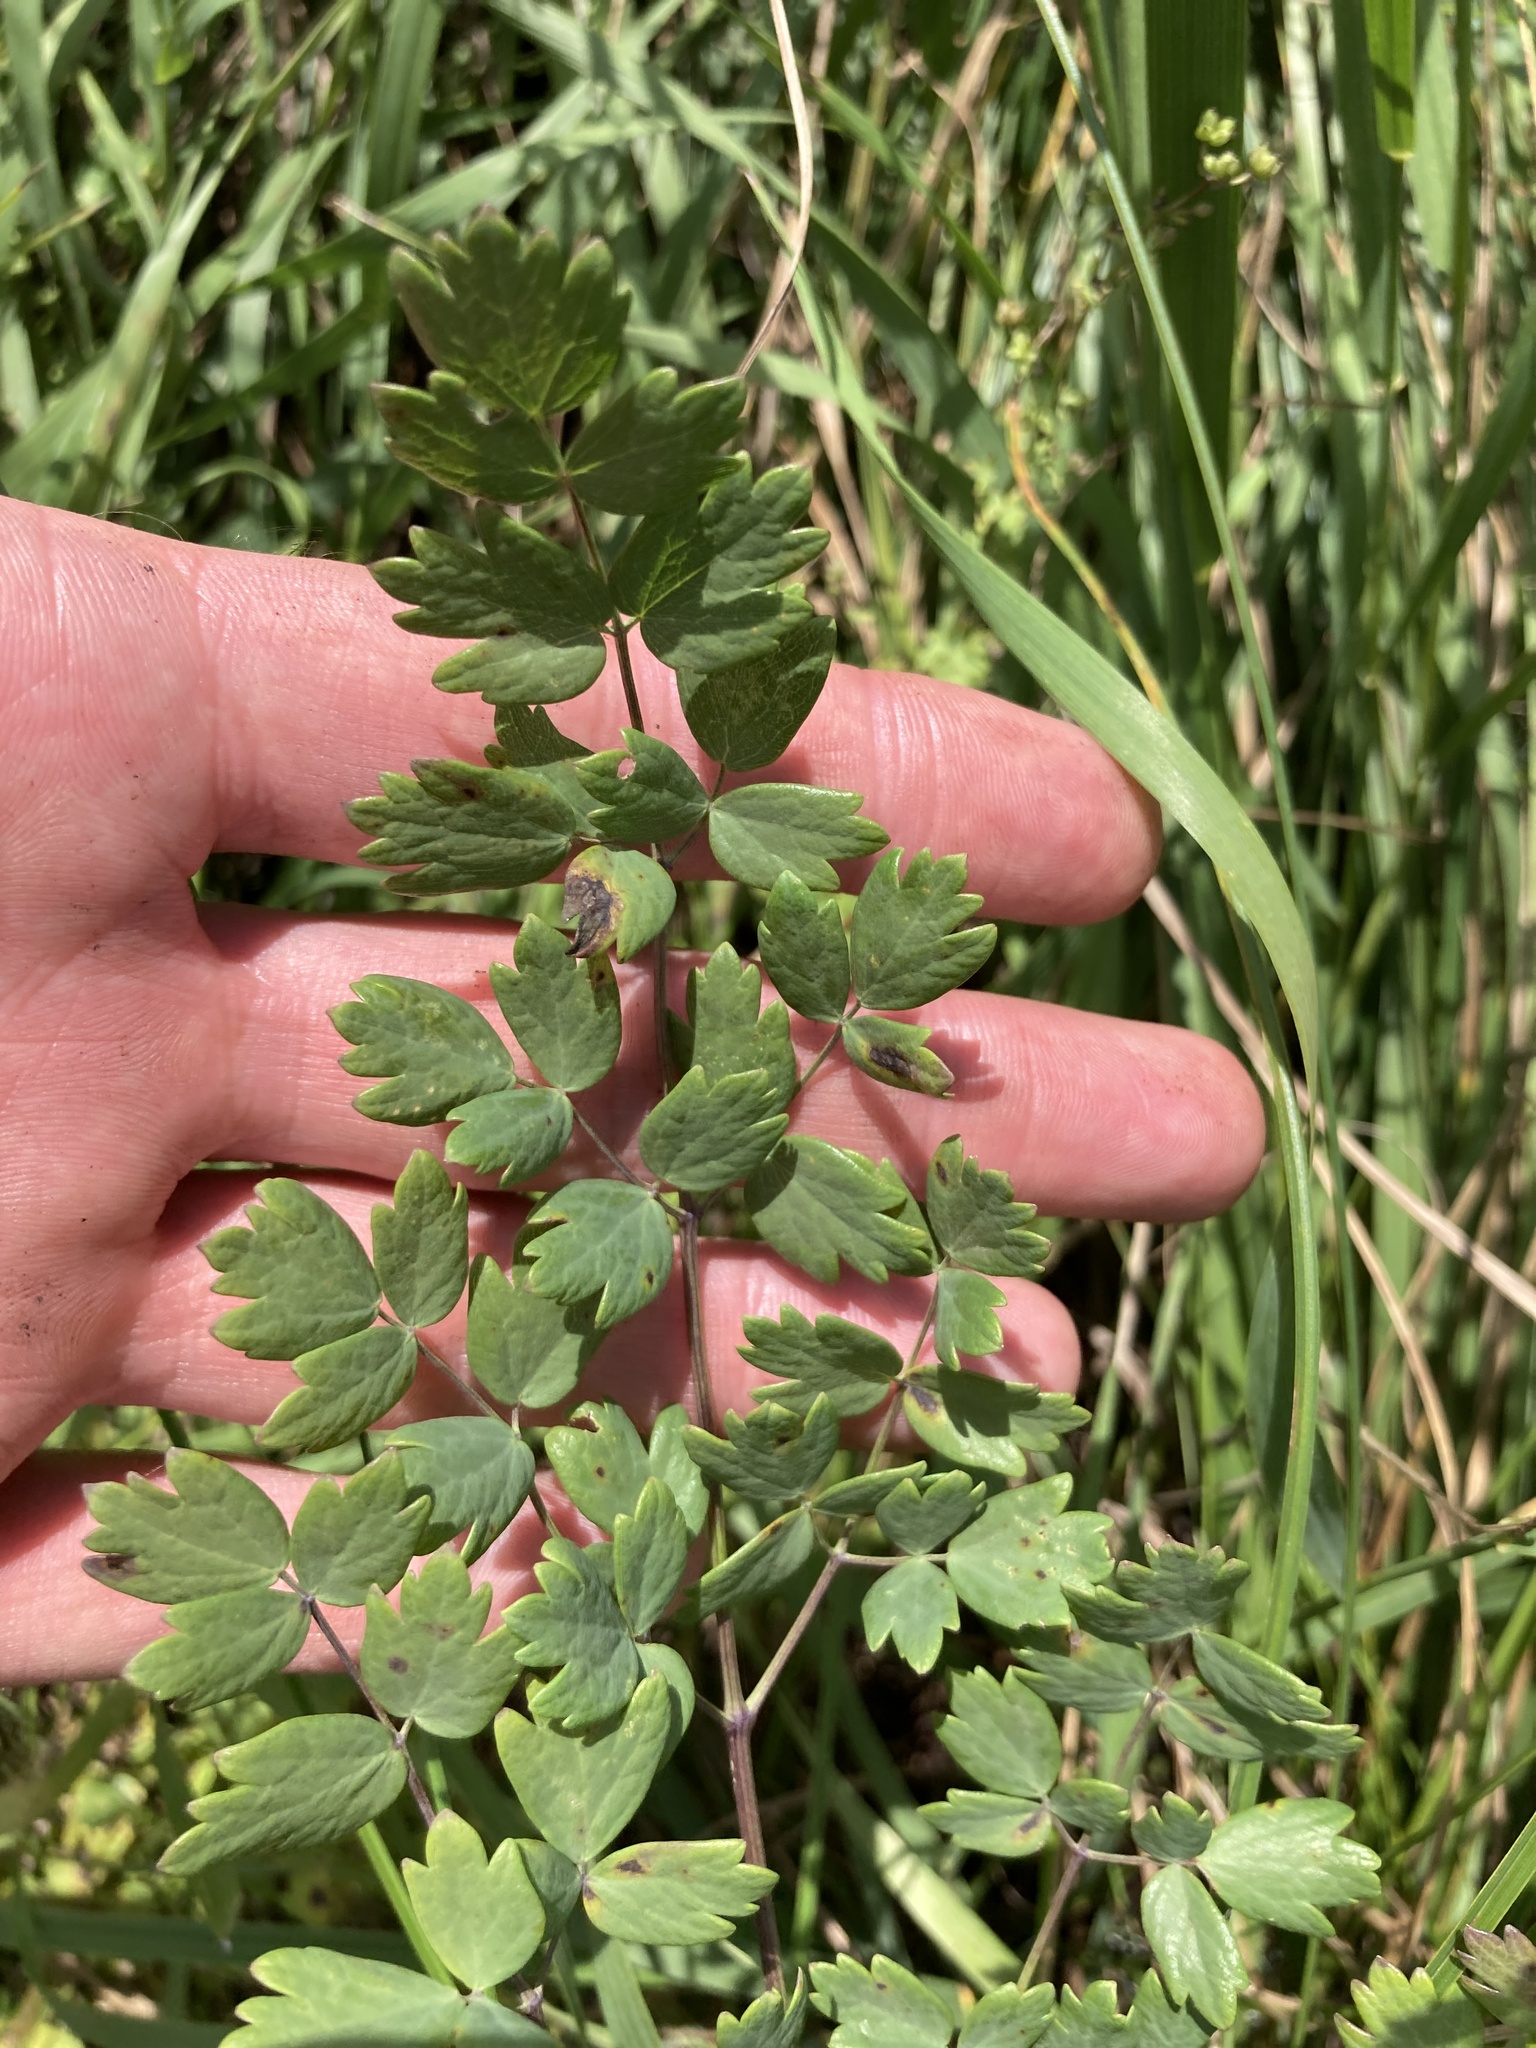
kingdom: Plantae
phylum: Tracheophyta
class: Magnoliopsida
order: Ranunculales
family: Ranunculaceae
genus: Thalictrum
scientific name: Thalictrum minus
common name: Lesser meadow-rue
